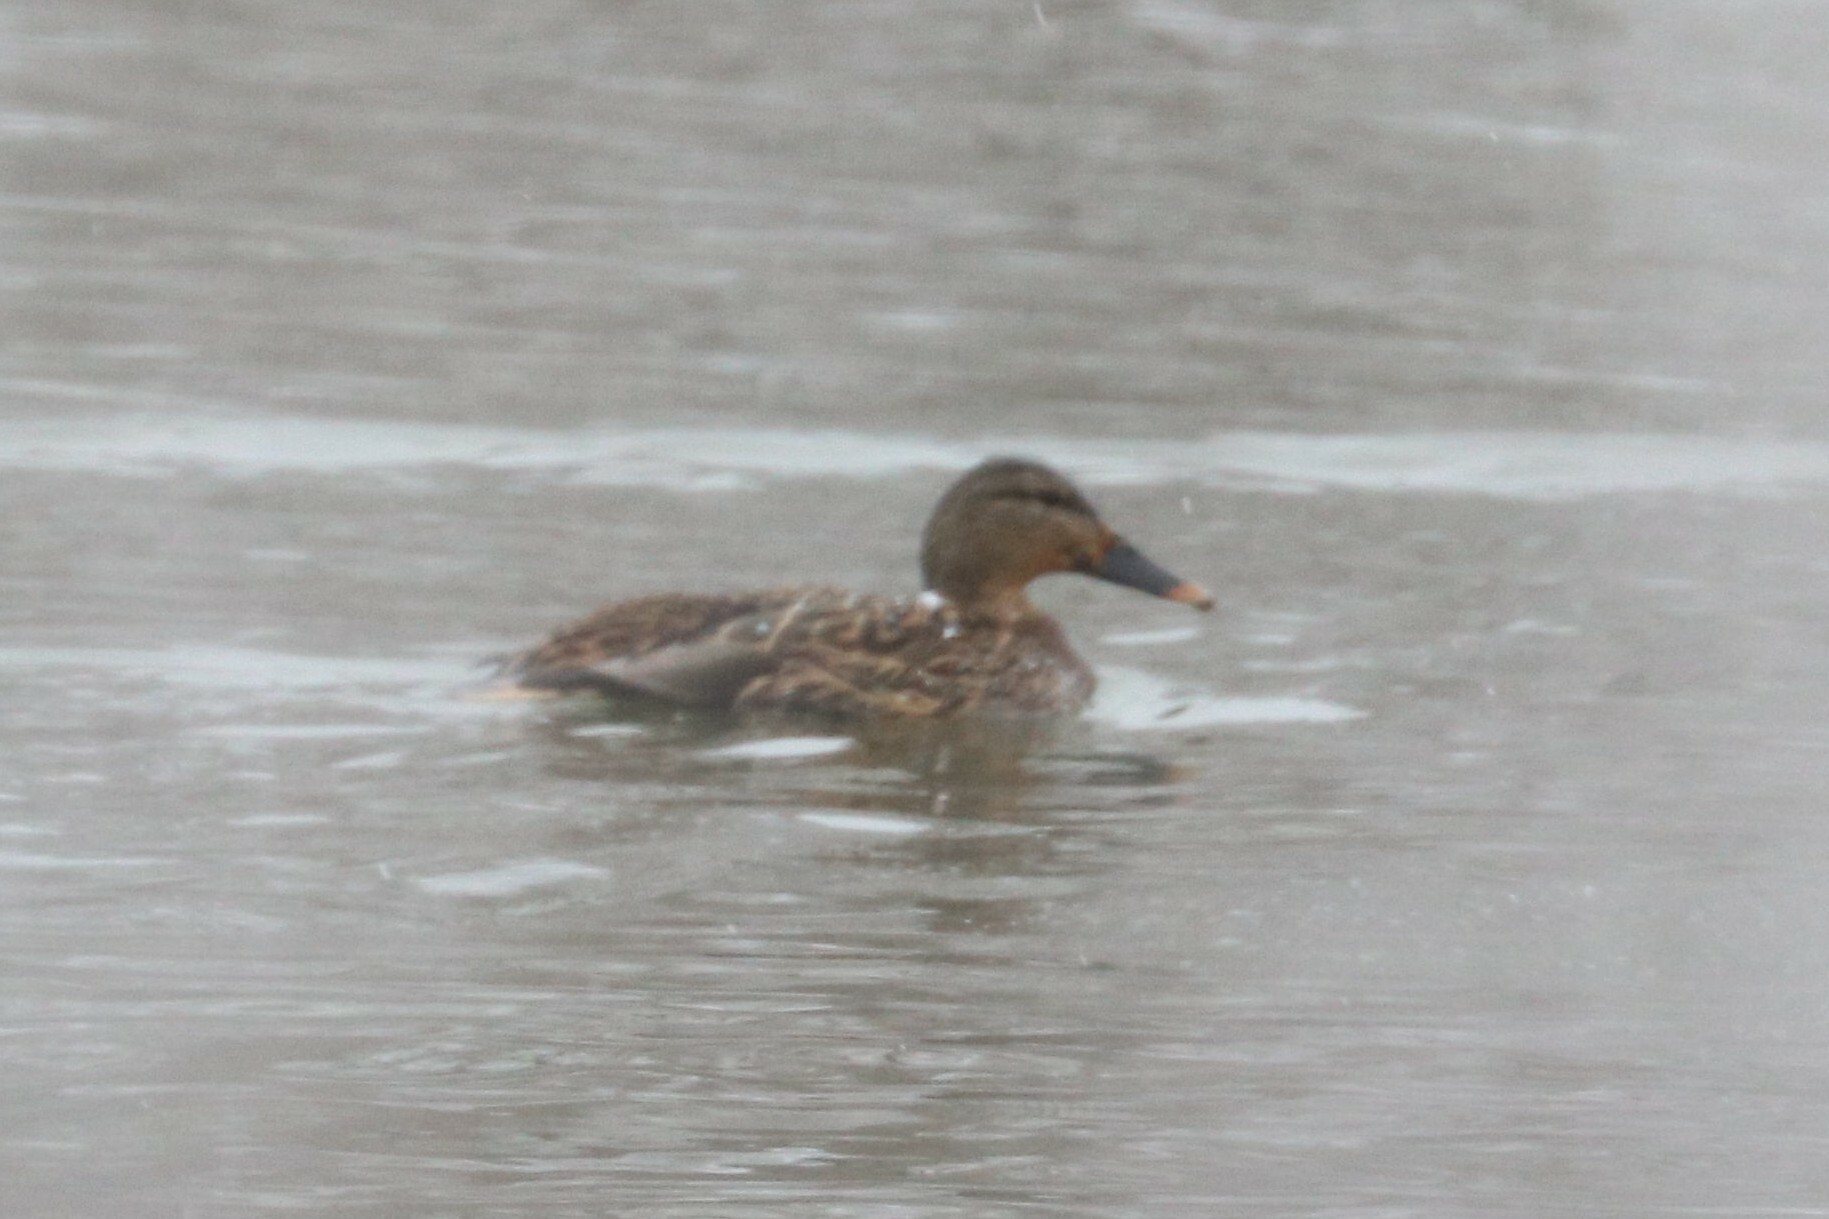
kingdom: Animalia
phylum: Chordata
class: Aves
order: Anseriformes
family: Anatidae
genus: Anas
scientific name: Anas platyrhynchos
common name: Mallard
